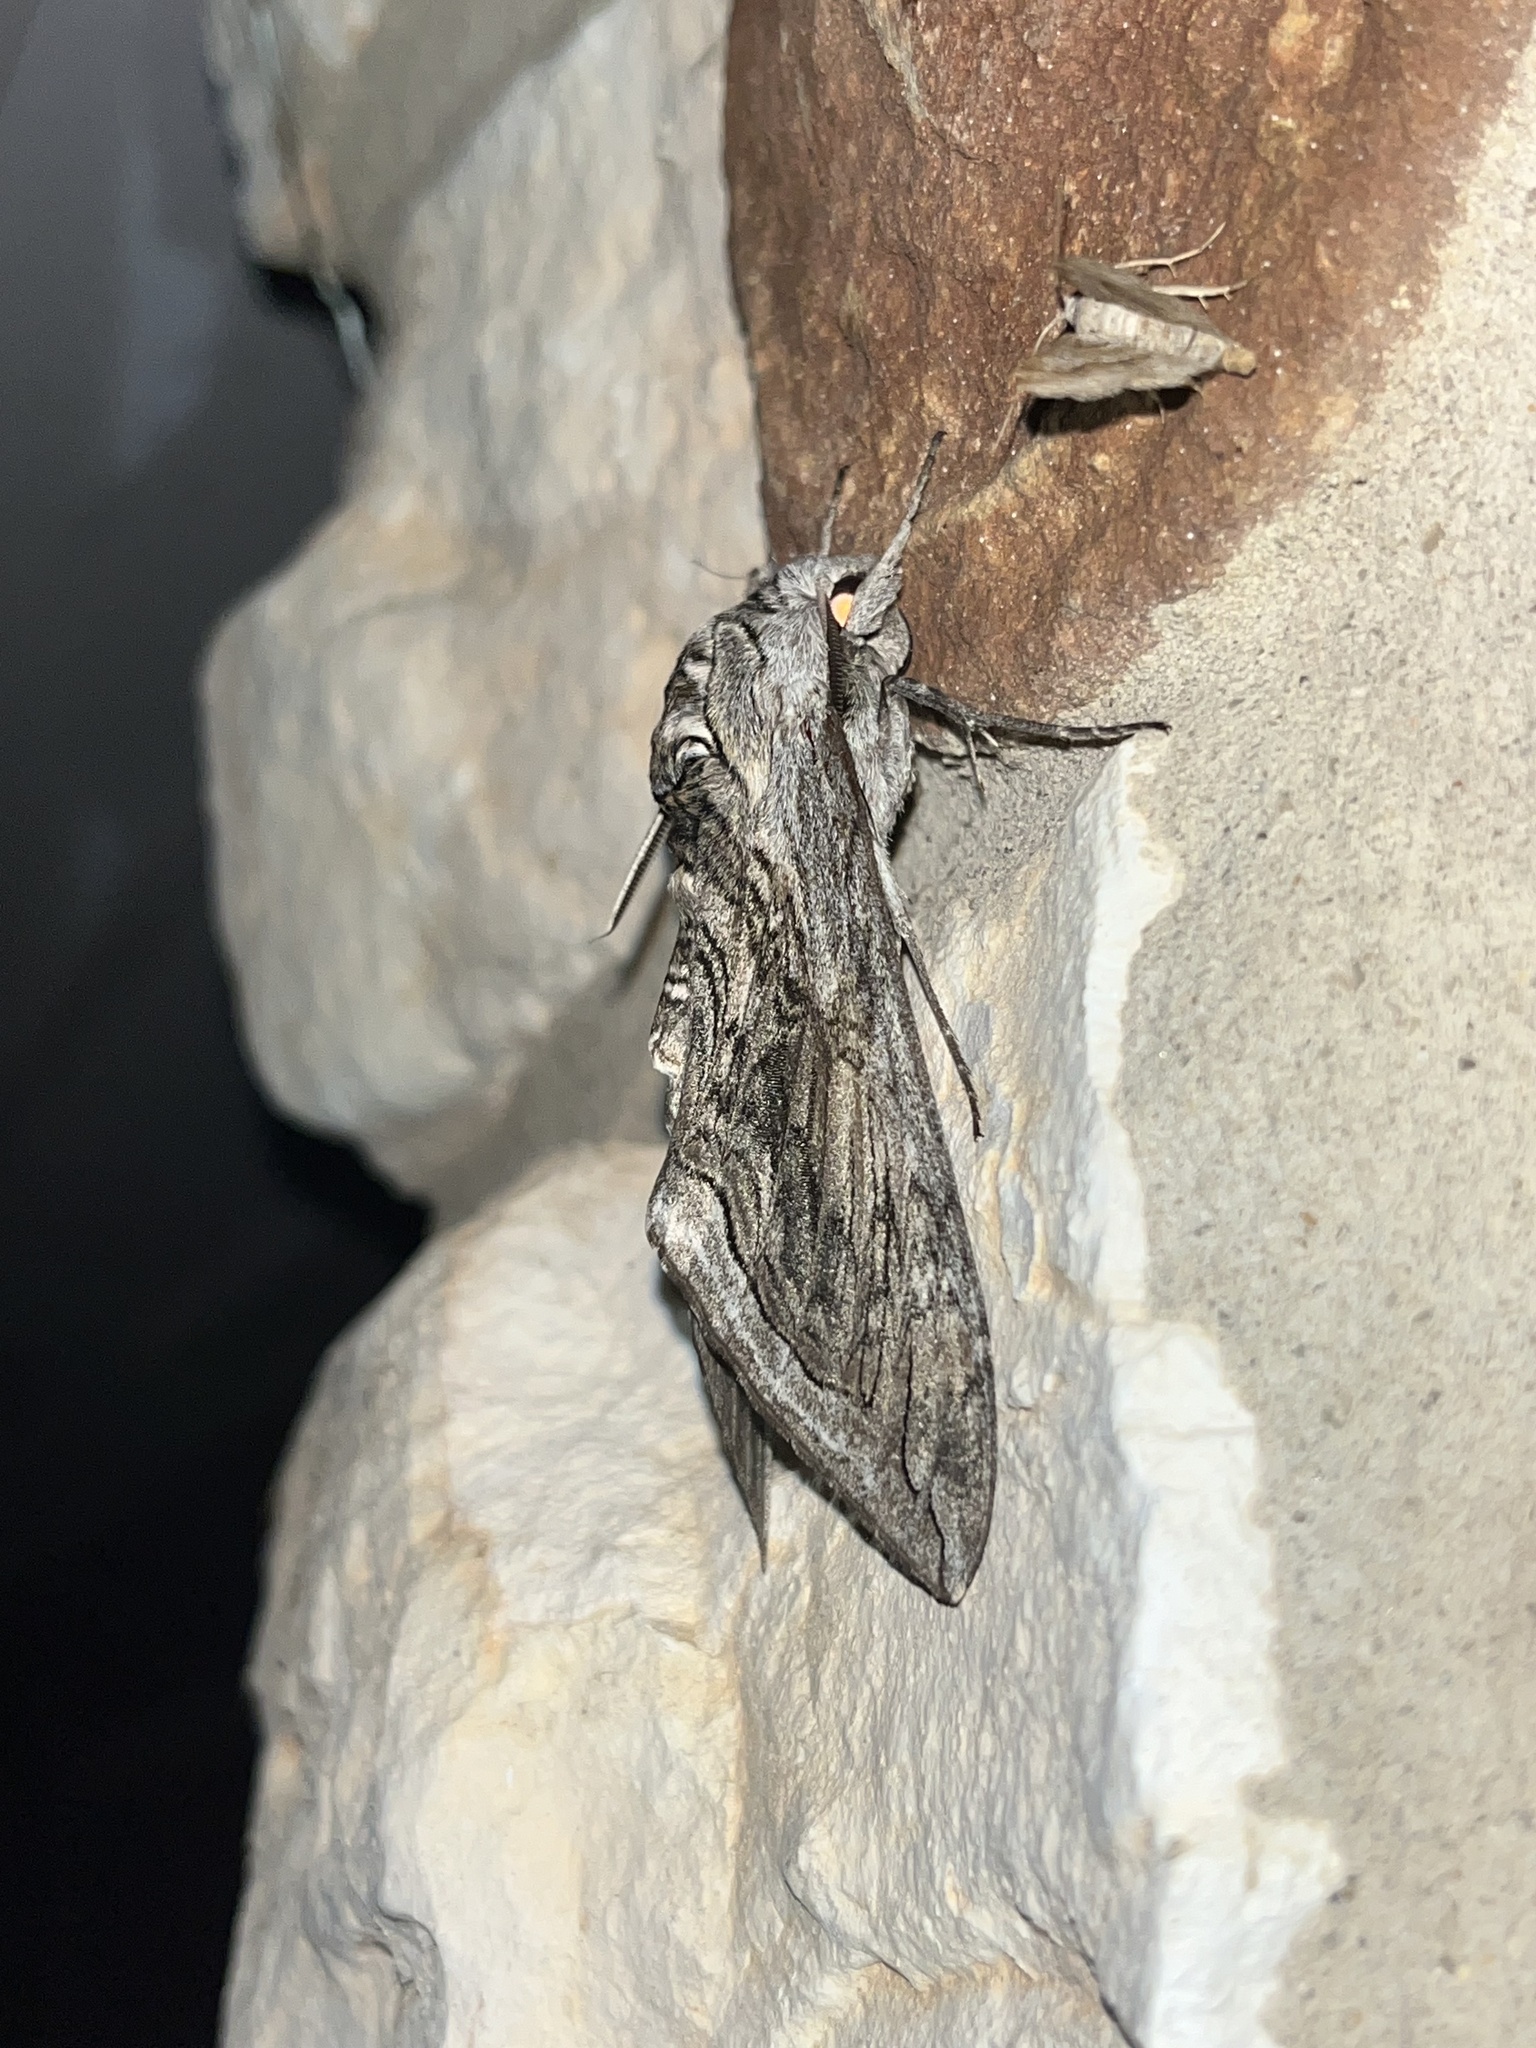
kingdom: Animalia
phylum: Arthropoda
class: Insecta
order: Lepidoptera
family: Sphingidae
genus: Manduca
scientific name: Manduca quinquemaculatus
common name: Five-spotted hawk-moth
